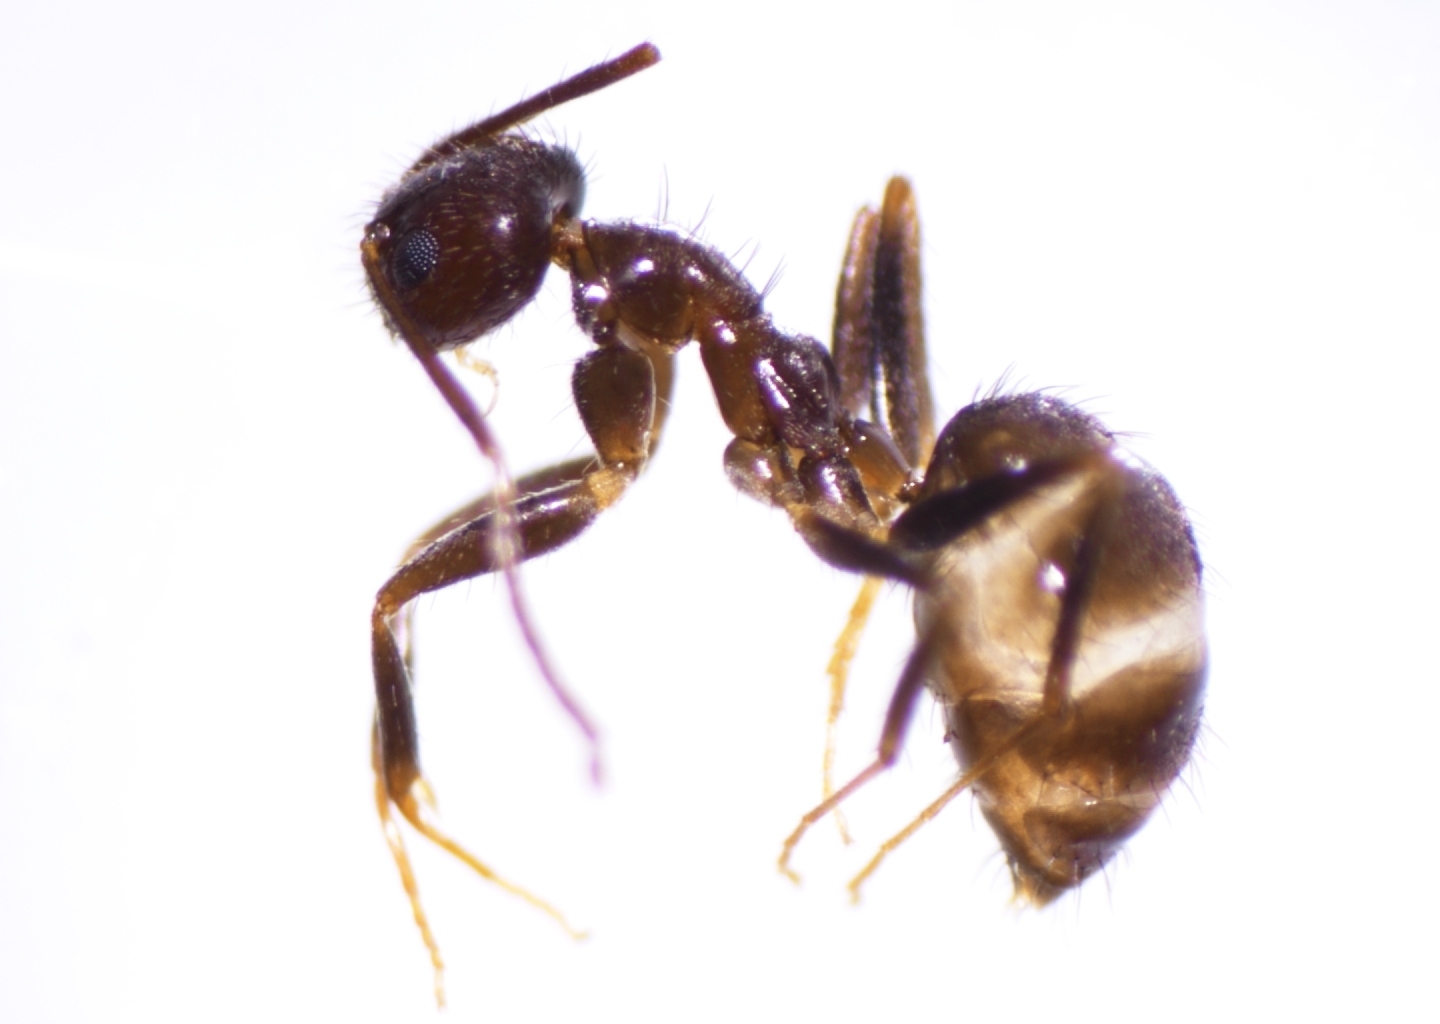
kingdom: Animalia
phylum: Arthropoda
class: Insecta
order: Hymenoptera
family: Formicidae
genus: Paratrechina
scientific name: Paratrechina bourbonica
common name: Ant
